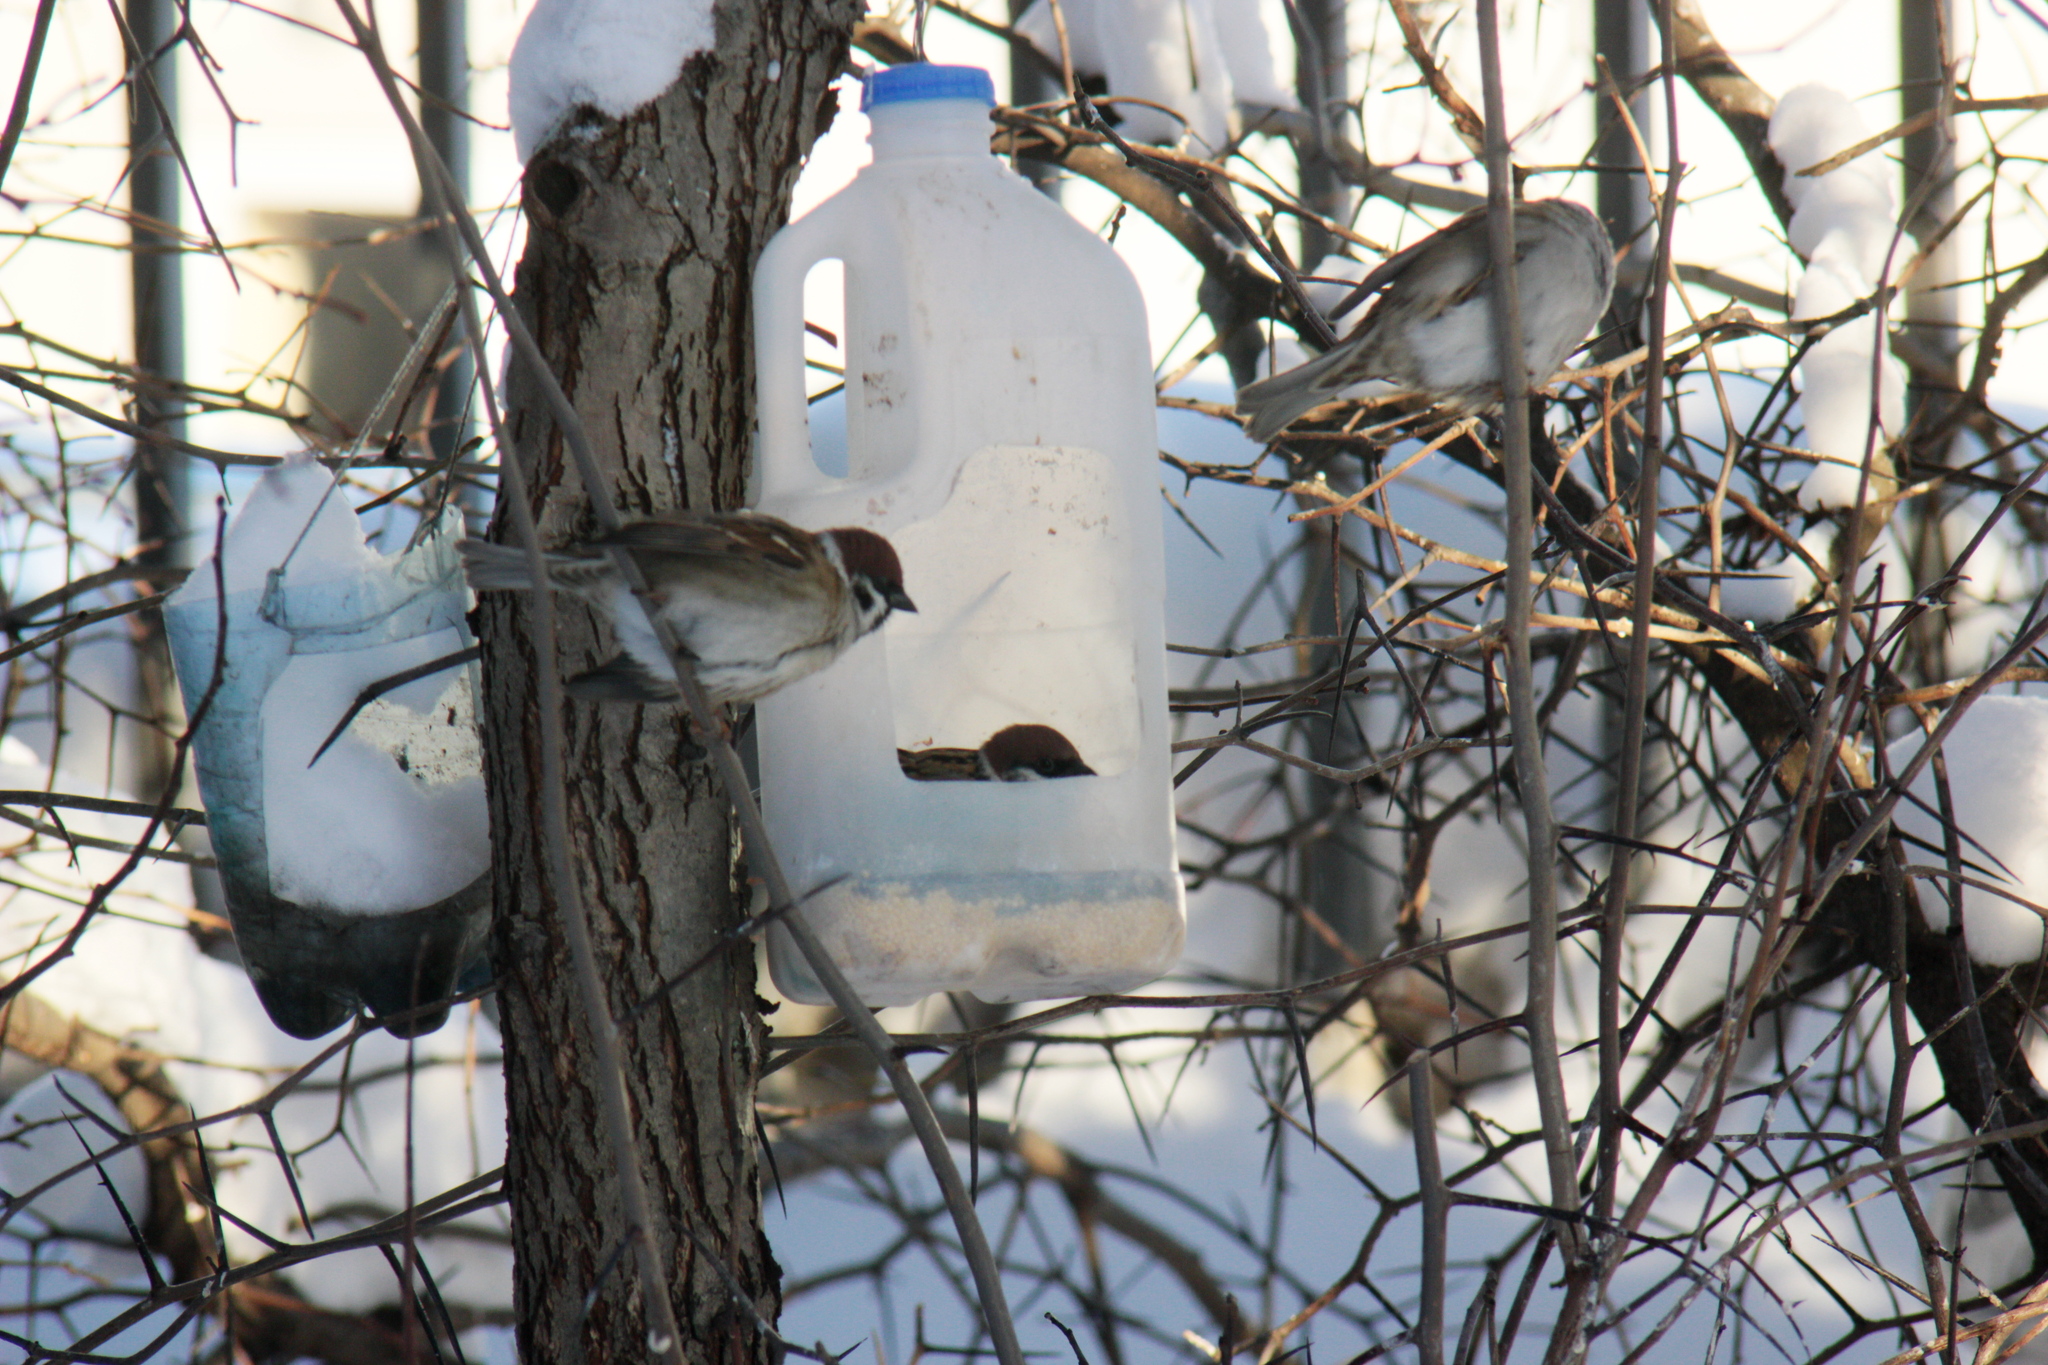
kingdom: Animalia
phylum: Chordata
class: Aves
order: Passeriformes
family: Passeridae
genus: Passer
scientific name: Passer montanus
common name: Eurasian tree sparrow
